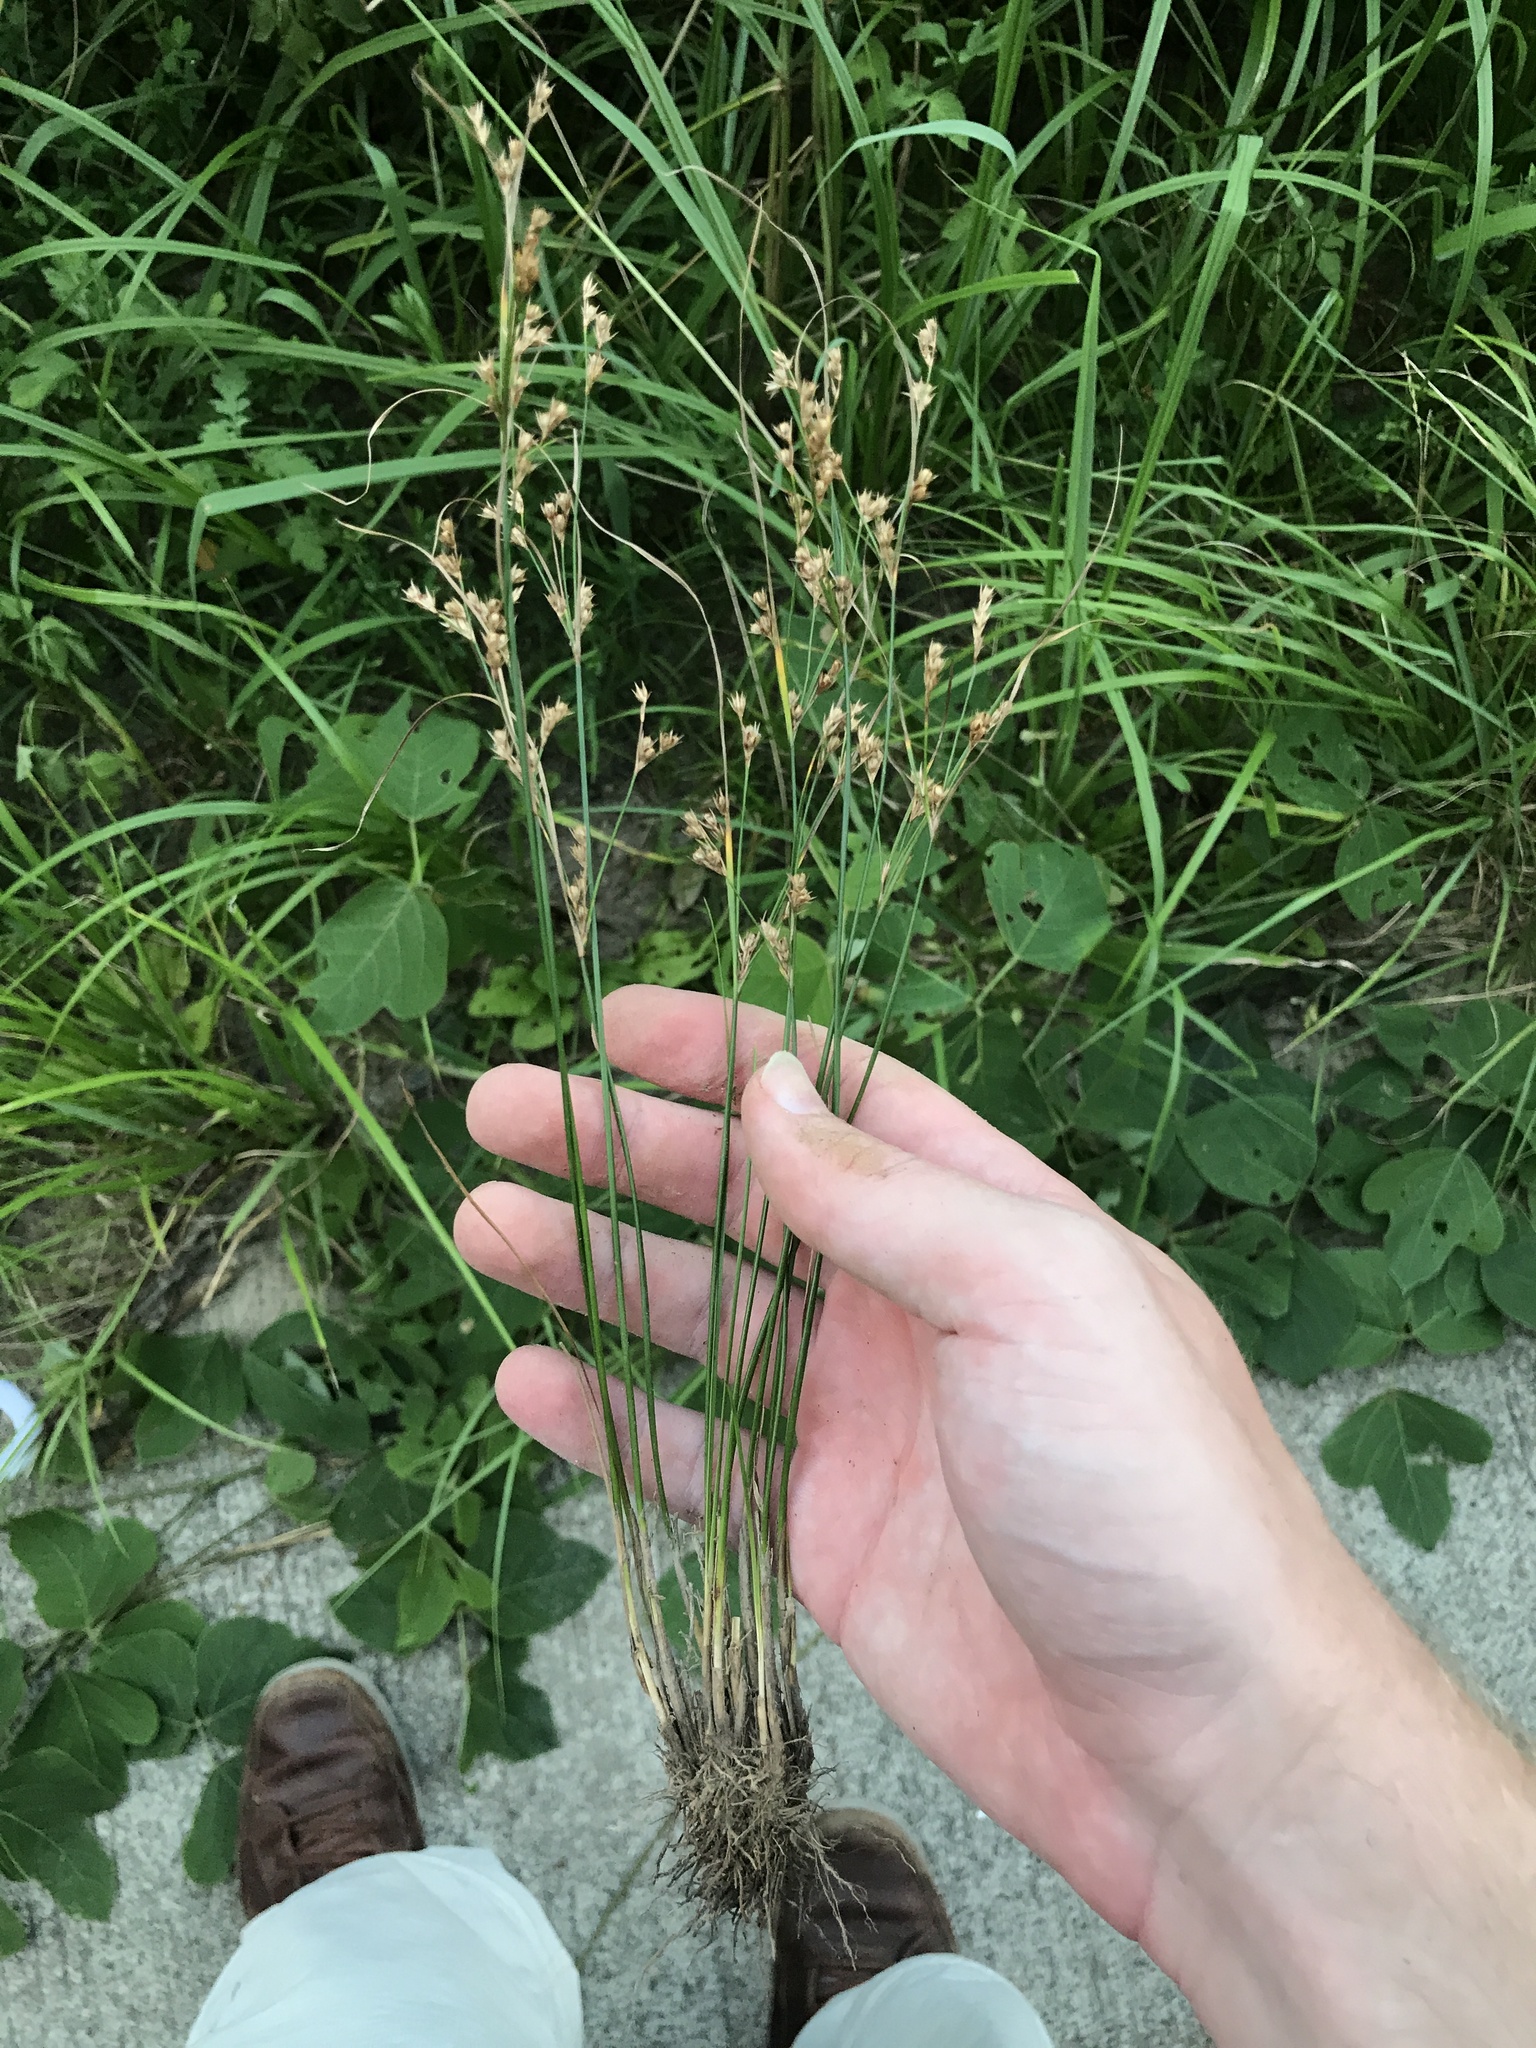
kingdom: Plantae
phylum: Tracheophyta
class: Liliopsida
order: Poales
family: Juncaceae
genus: Juncus
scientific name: Juncus tenuis
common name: Slender rush
